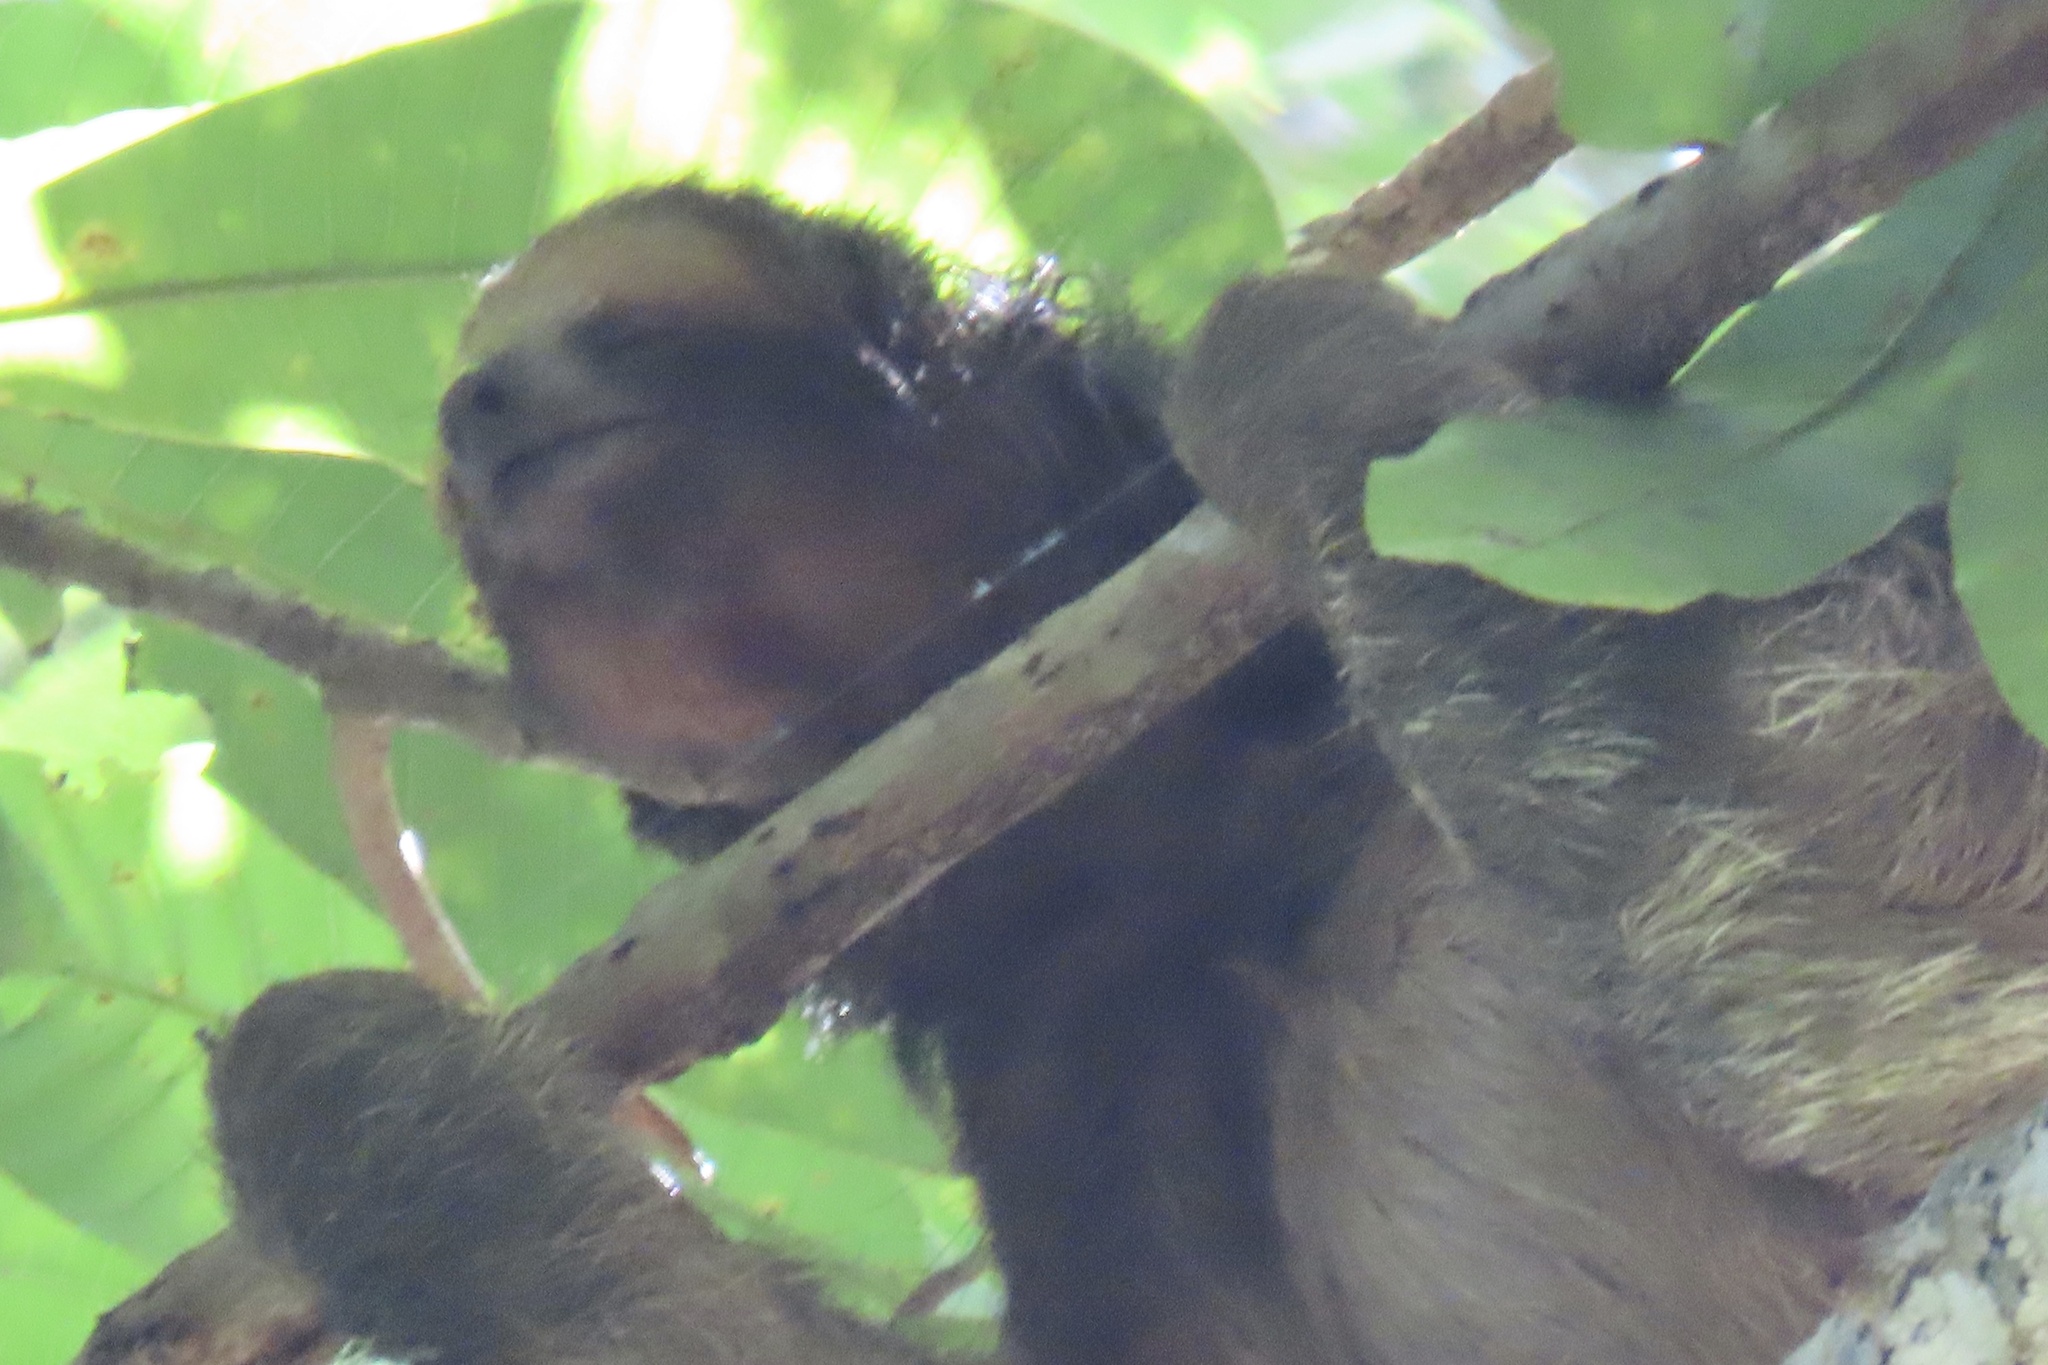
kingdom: Animalia
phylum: Chordata
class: Mammalia
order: Pilosa
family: Bradypodidae
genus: Bradypus
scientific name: Bradypus variegatus
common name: Brown-throated three-toed sloth
